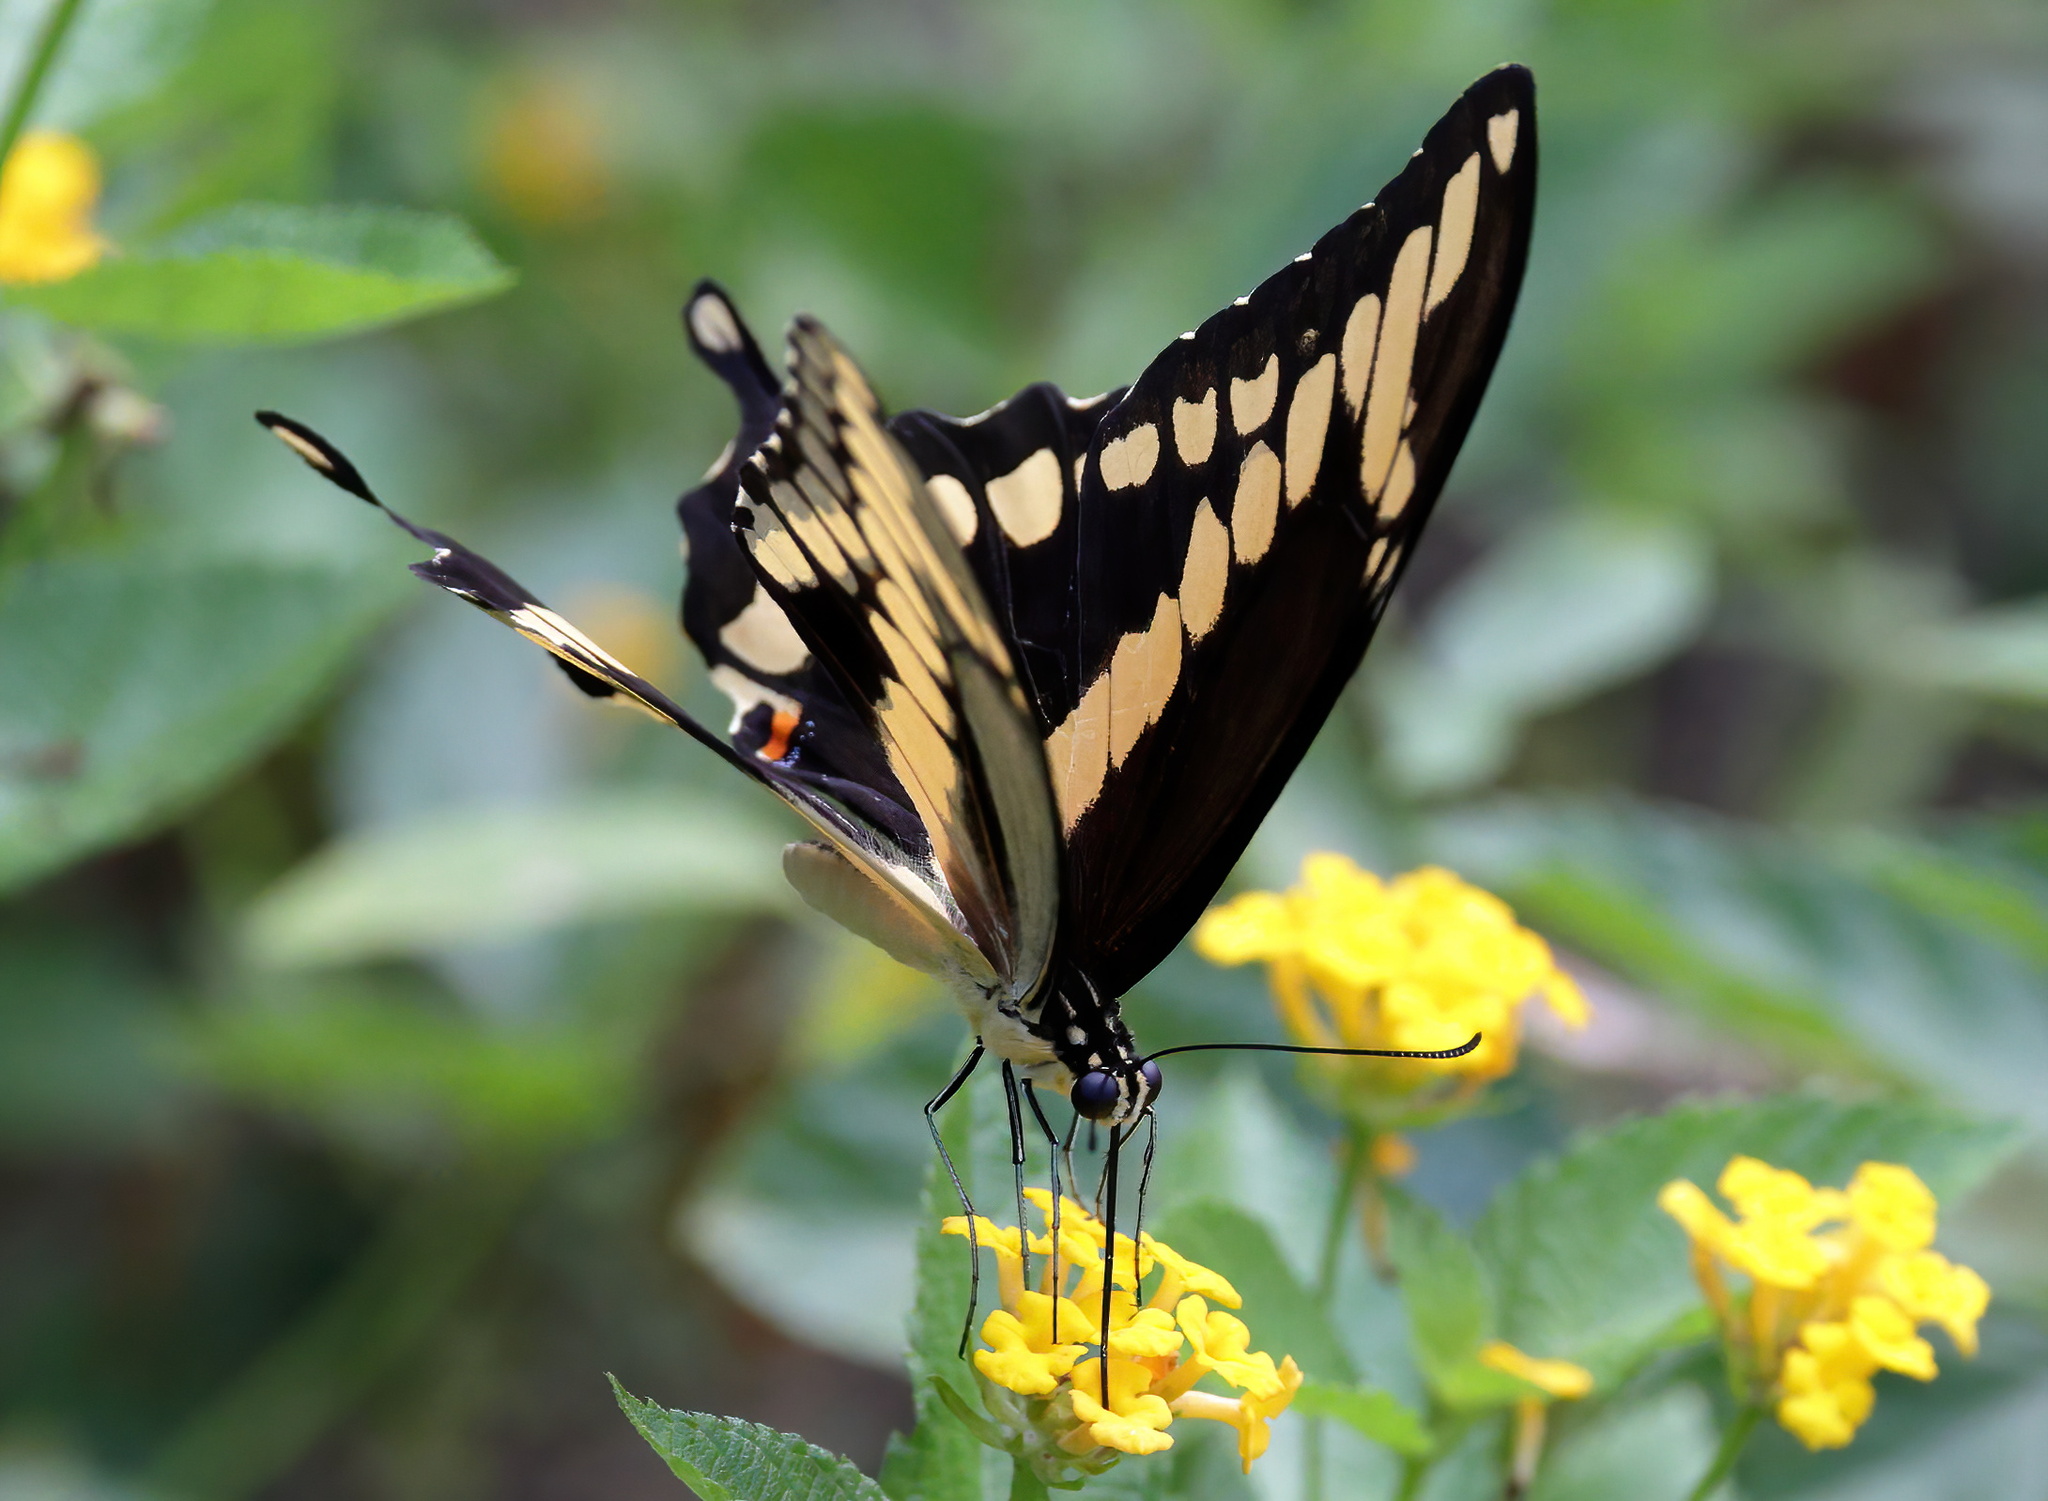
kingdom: Animalia
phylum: Arthropoda
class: Insecta
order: Lepidoptera
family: Papilionidae
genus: Papilio
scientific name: Papilio cresphontes
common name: Giant swallowtail
